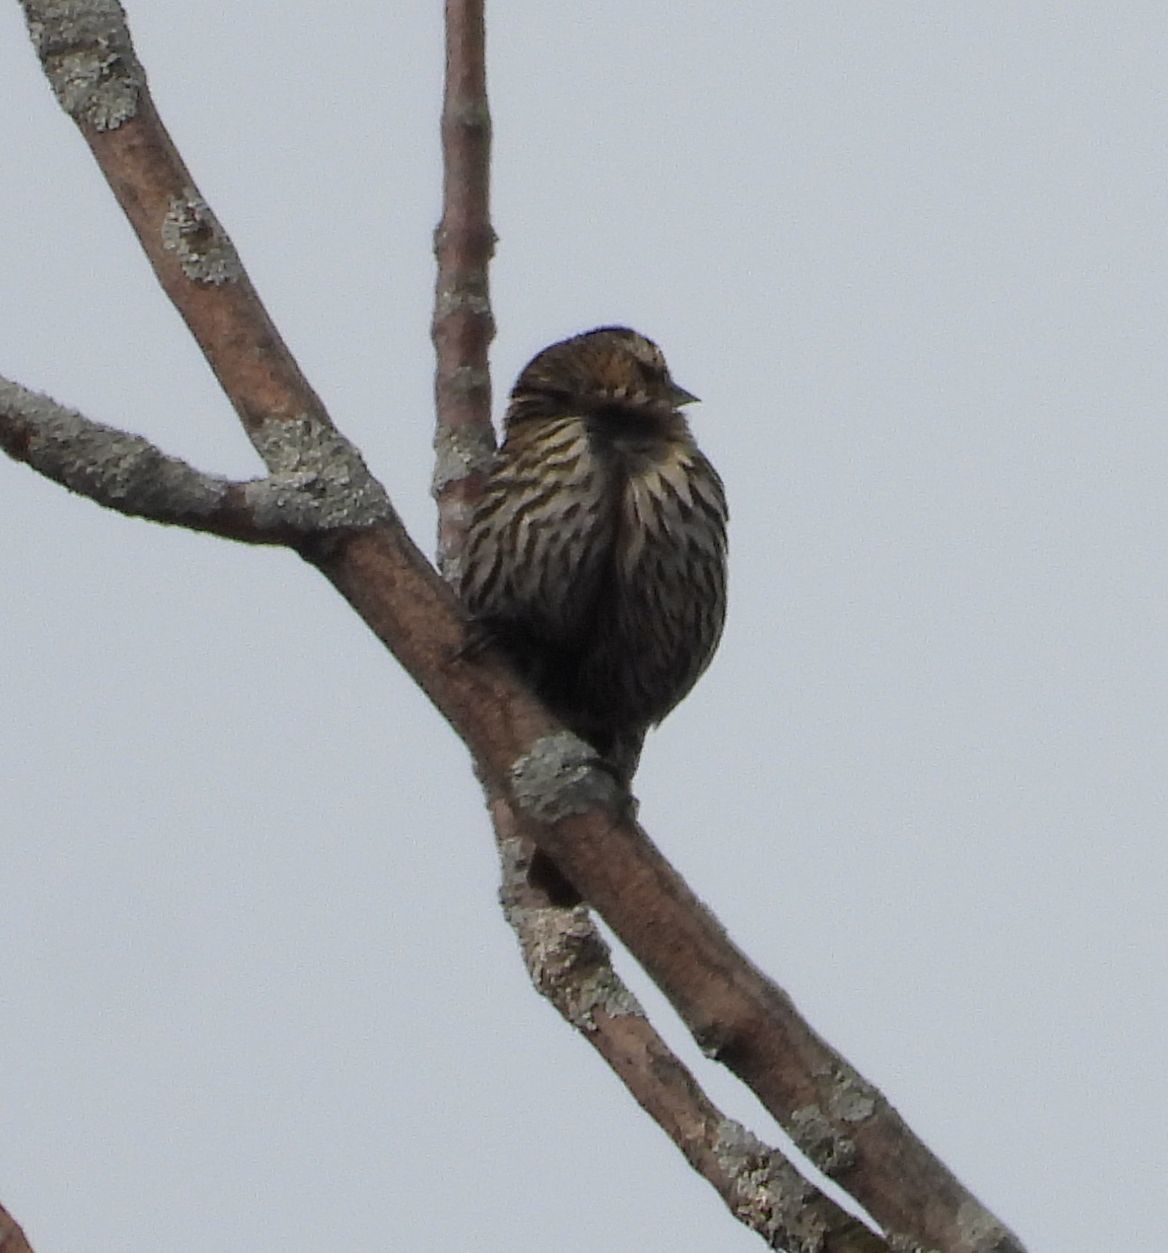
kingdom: Animalia
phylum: Chordata
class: Aves
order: Passeriformes
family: Icteridae
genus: Agelaius
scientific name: Agelaius phoeniceus
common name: Red-winged blackbird
